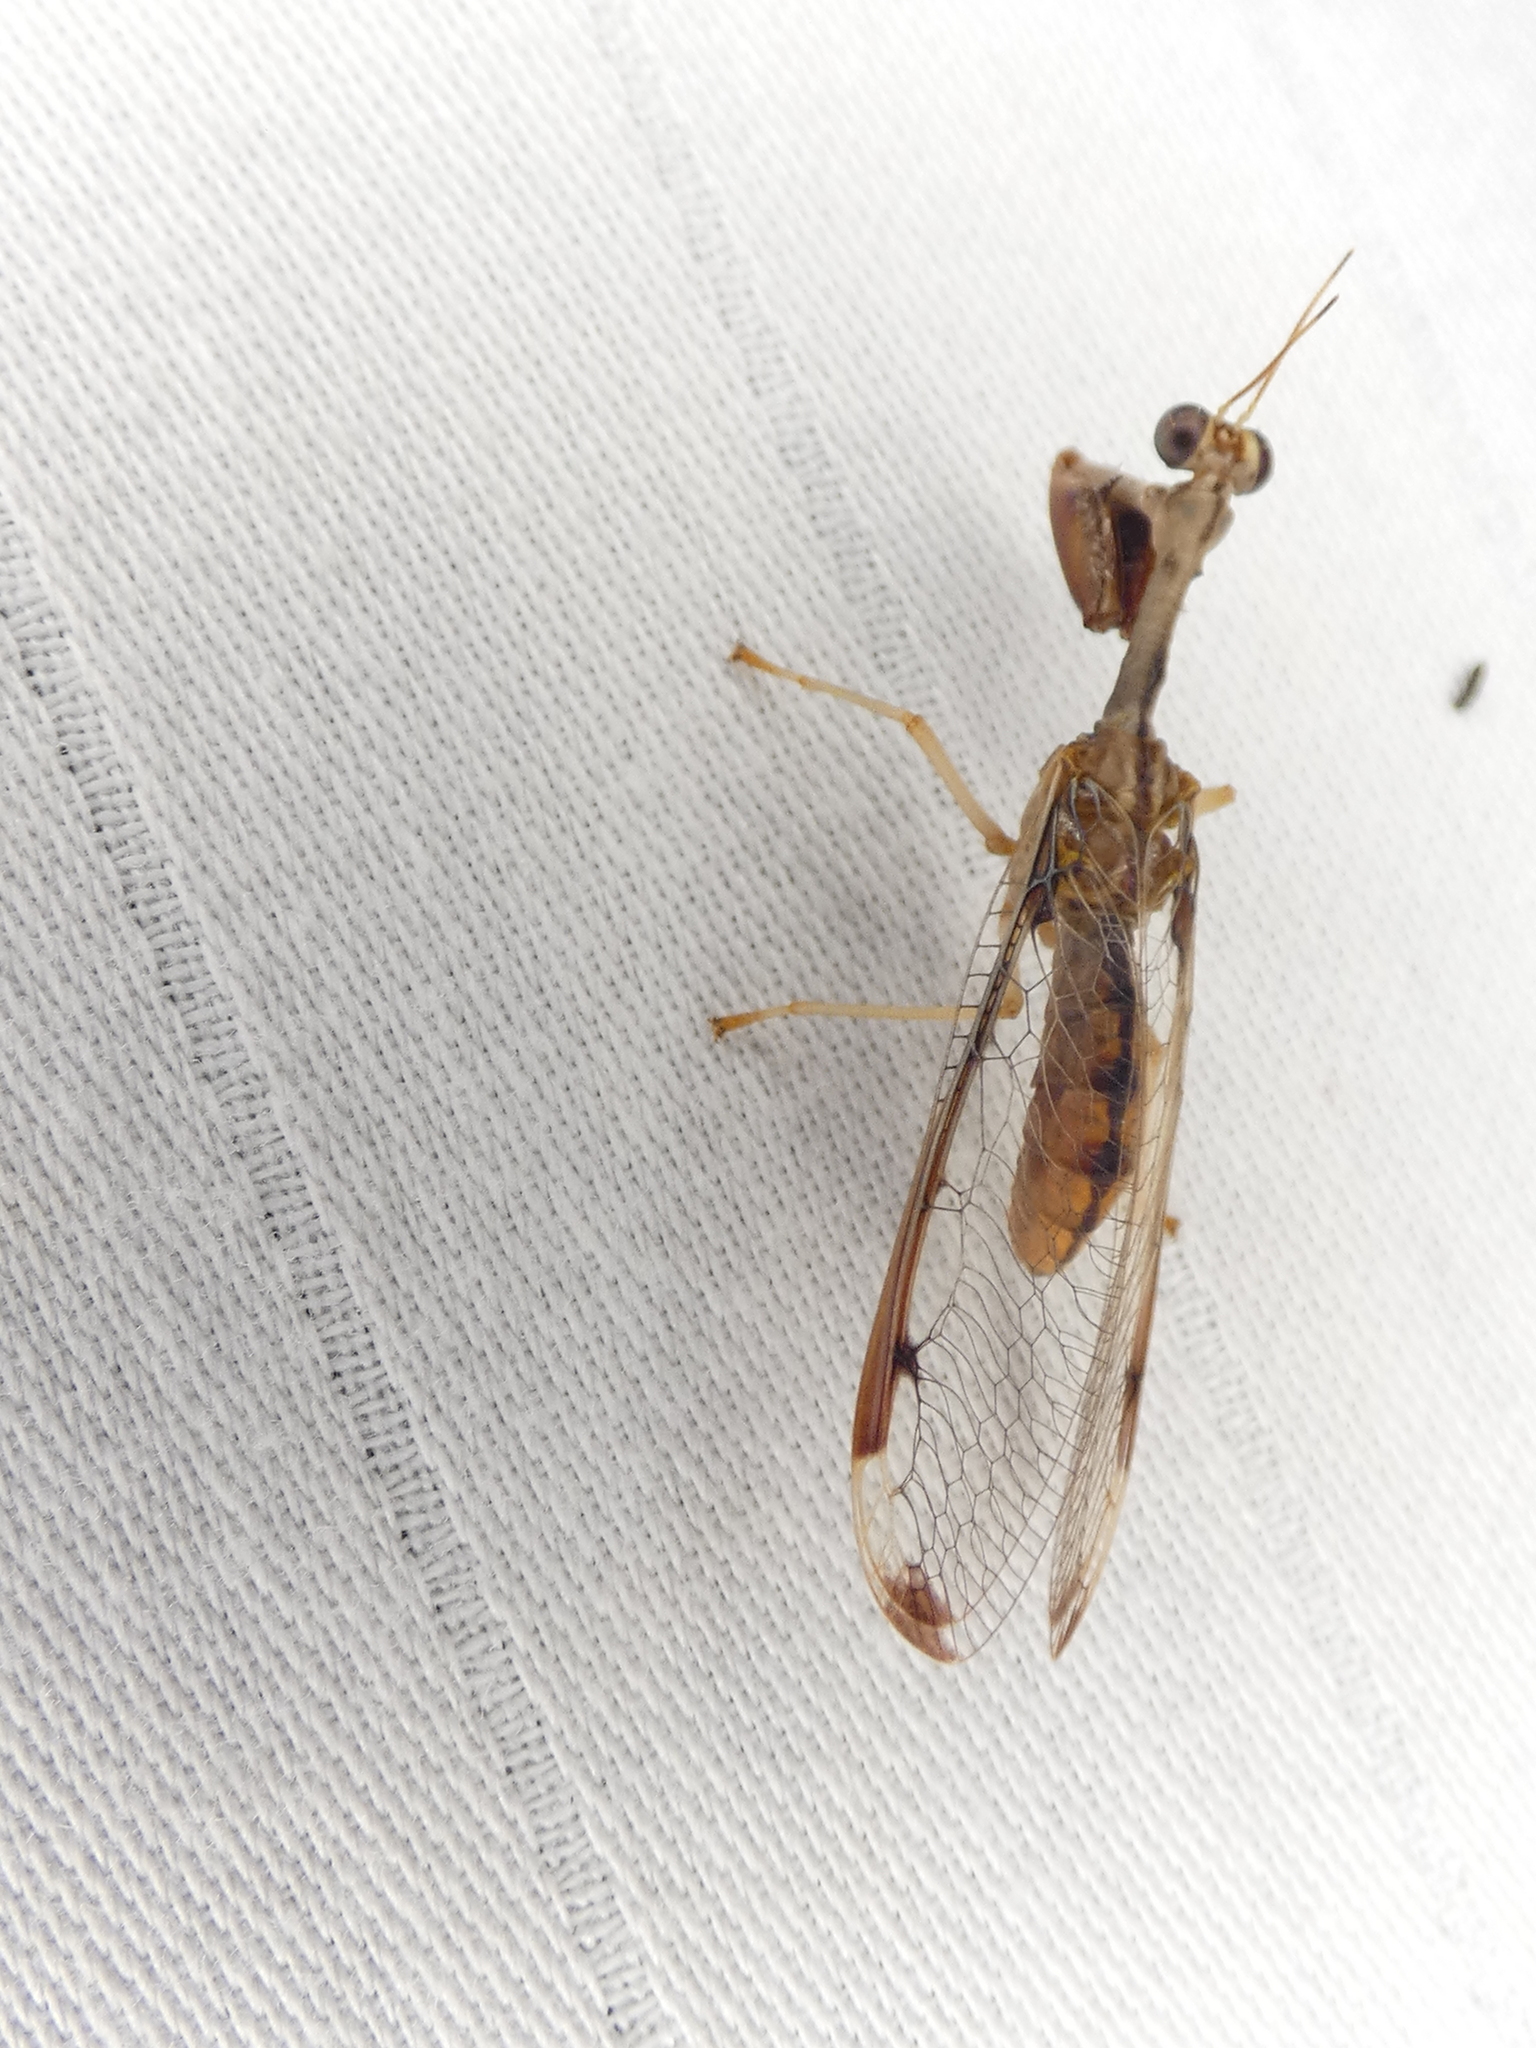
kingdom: Animalia
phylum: Arthropoda
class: Insecta
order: Neuroptera
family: Mantispidae
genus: Dicromantispa
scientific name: Dicromantispa interrupta
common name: Four-spotted mantidfly
